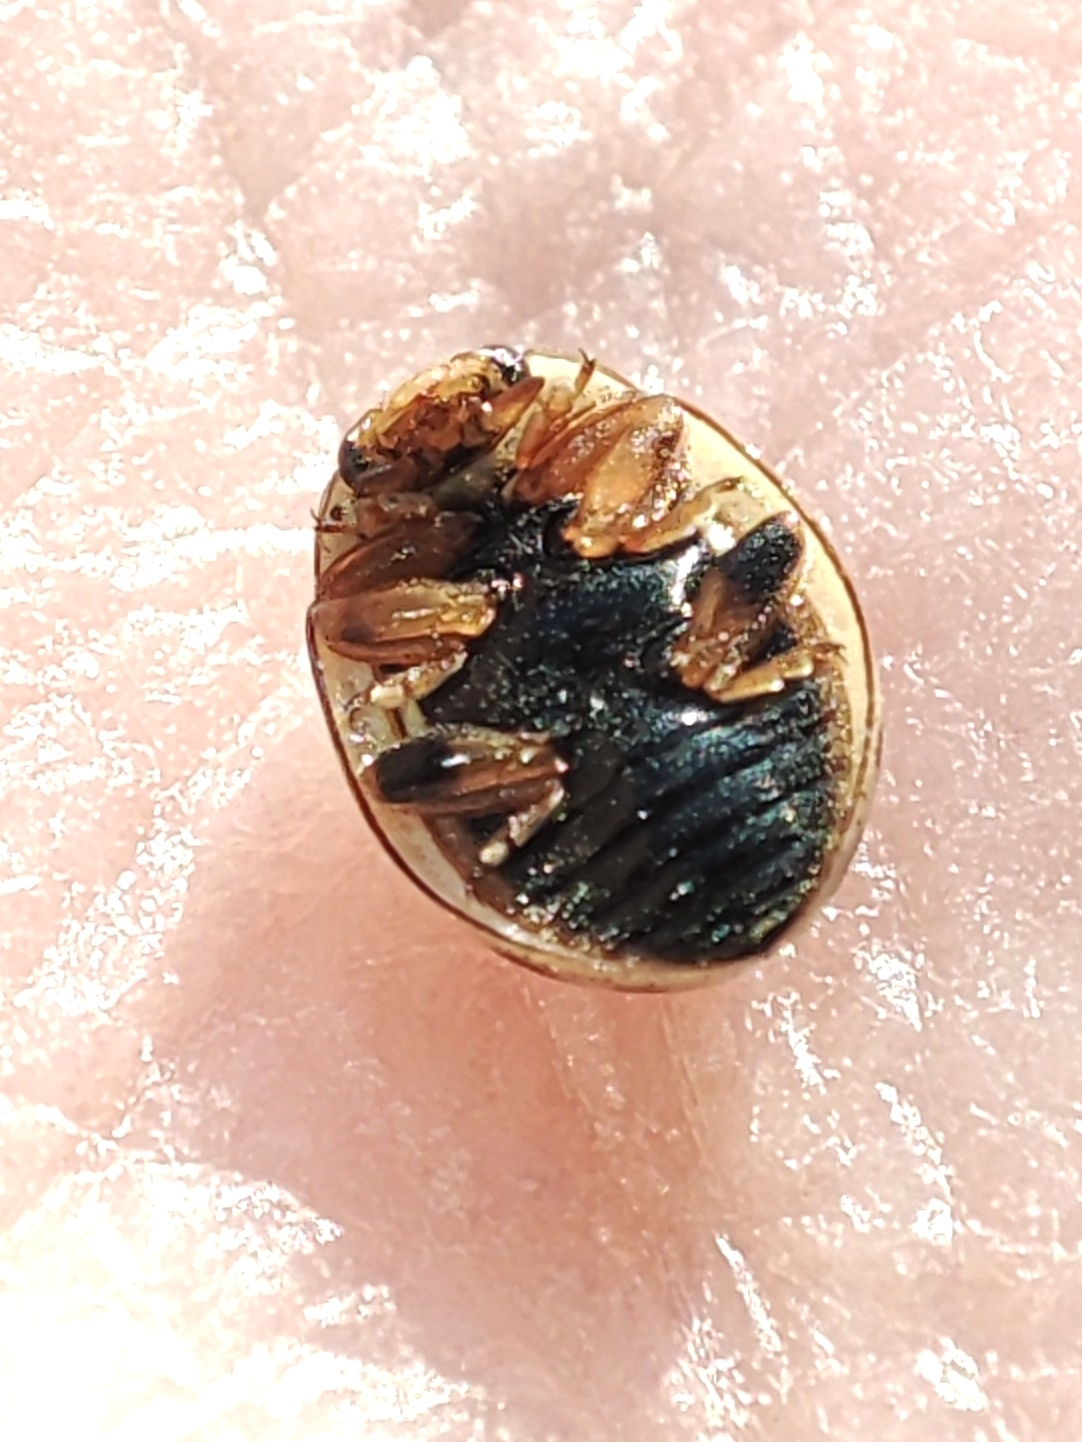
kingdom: Animalia
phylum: Arthropoda
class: Insecta
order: Coleoptera
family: Coccinellidae
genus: Tytthaspis
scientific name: Tytthaspis sedecimpunctata
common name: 16-spot ladybird
